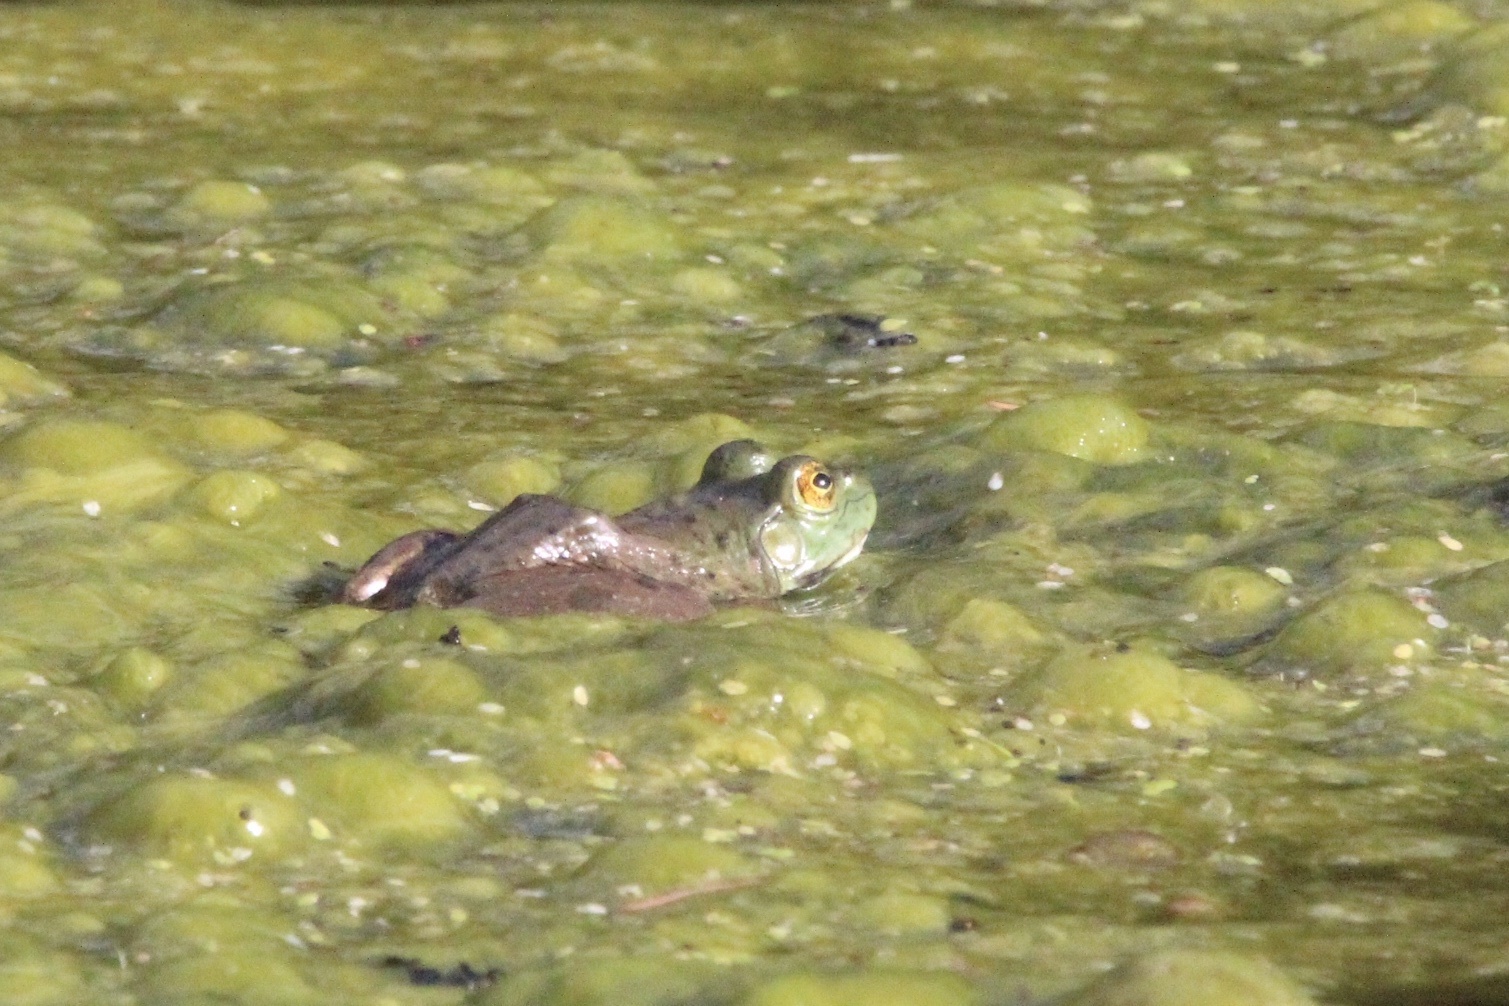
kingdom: Animalia
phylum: Chordata
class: Amphibia
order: Anura
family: Ranidae
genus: Lithobates
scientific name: Lithobates catesbeianus
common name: American bullfrog
